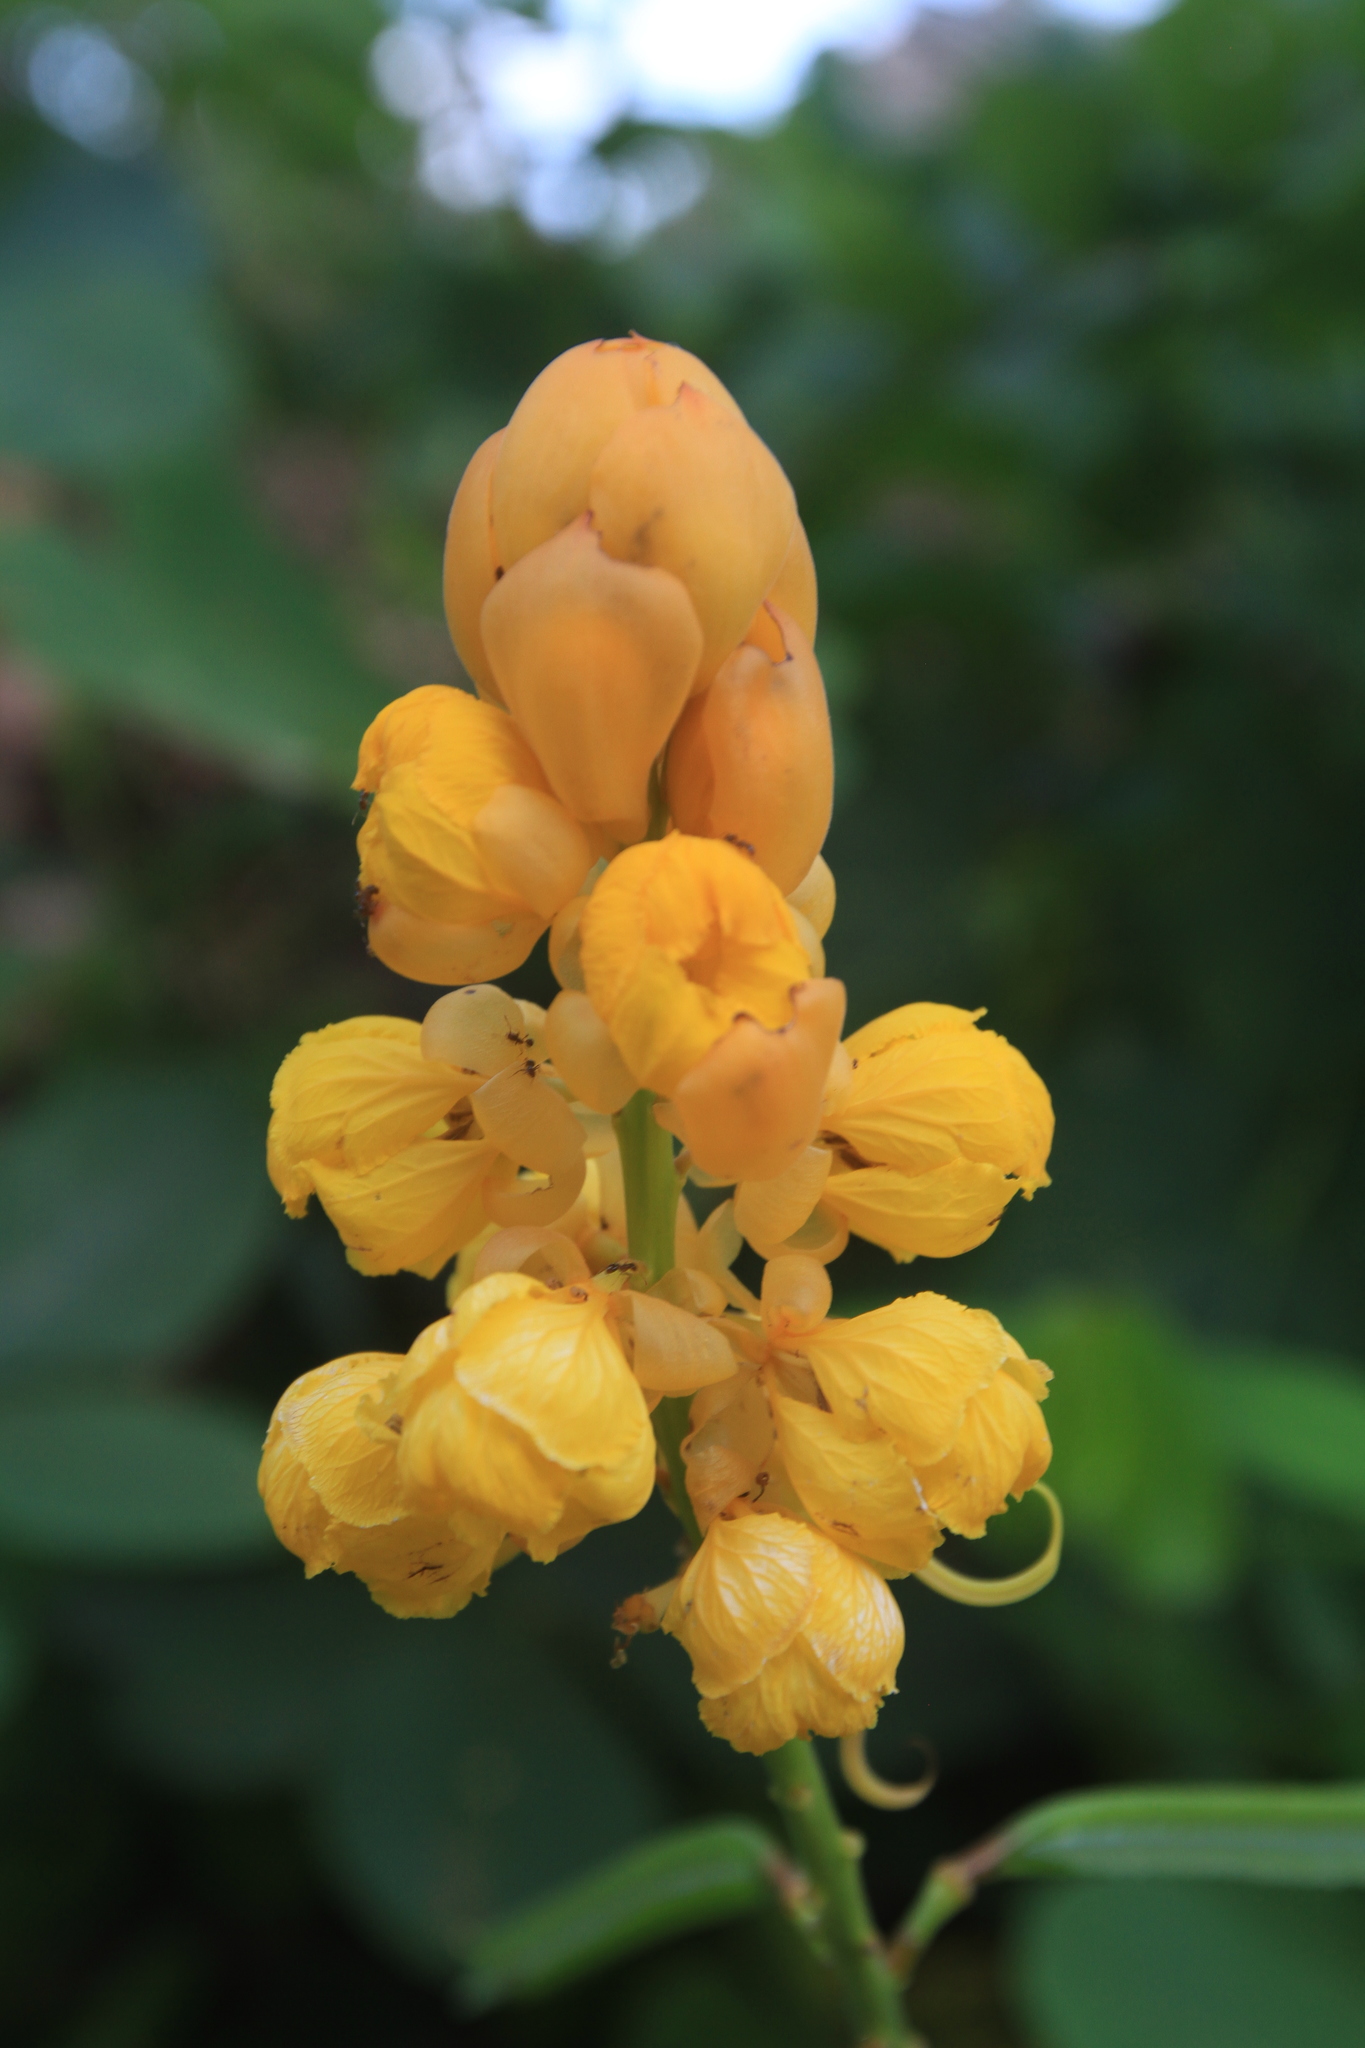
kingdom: Plantae
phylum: Tracheophyta
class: Magnoliopsida
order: Fabales
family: Fabaceae
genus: Senna
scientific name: Senna alata
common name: Emperor's candlesticks
